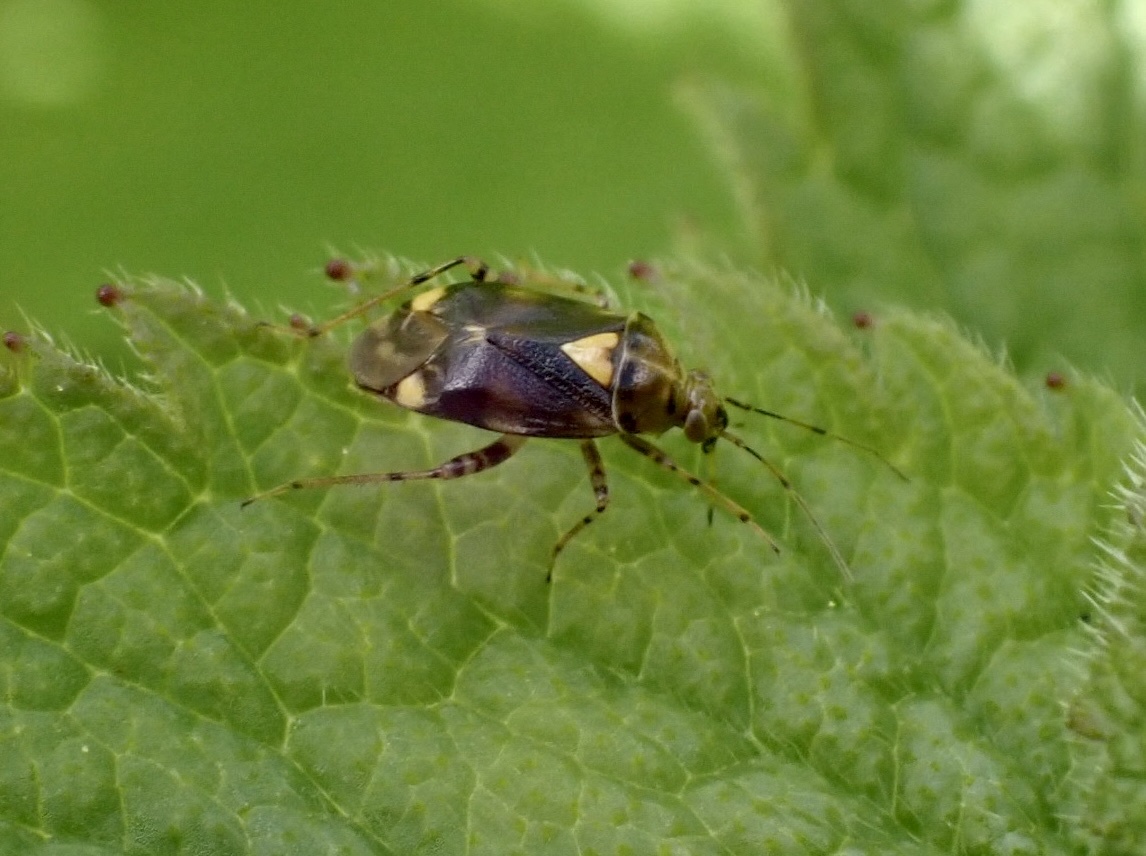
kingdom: Animalia
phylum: Arthropoda
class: Insecta
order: Hemiptera
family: Miridae
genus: Liocoris
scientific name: Liocoris tripustulatus
